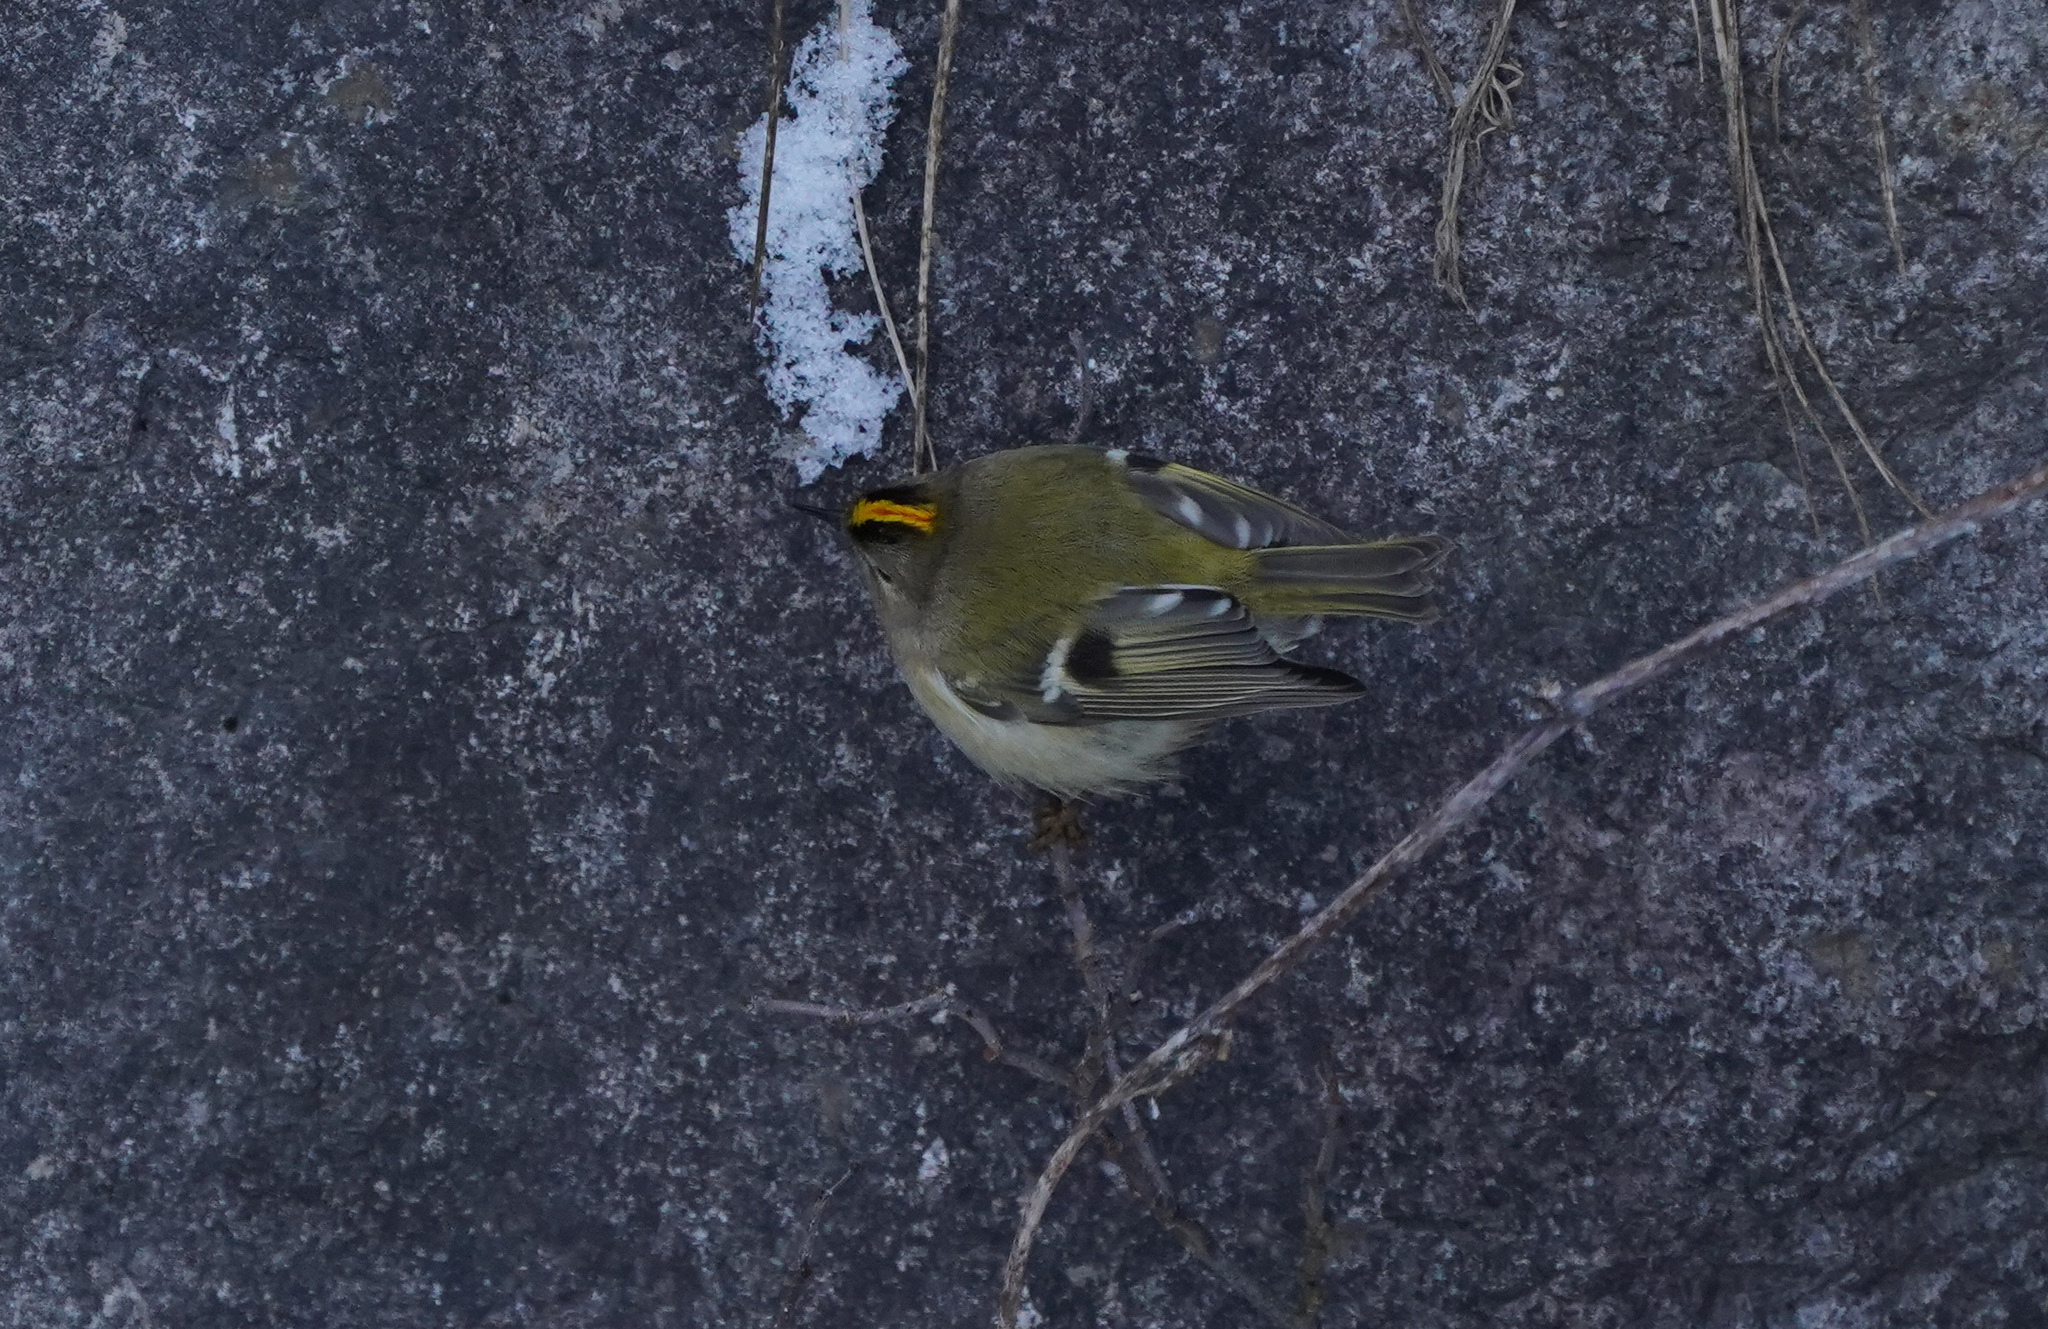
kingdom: Animalia
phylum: Chordata
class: Aves
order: Passeriformes
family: Regulidae
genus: Regulus
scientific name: Regulus regulus
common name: Goldcrest
